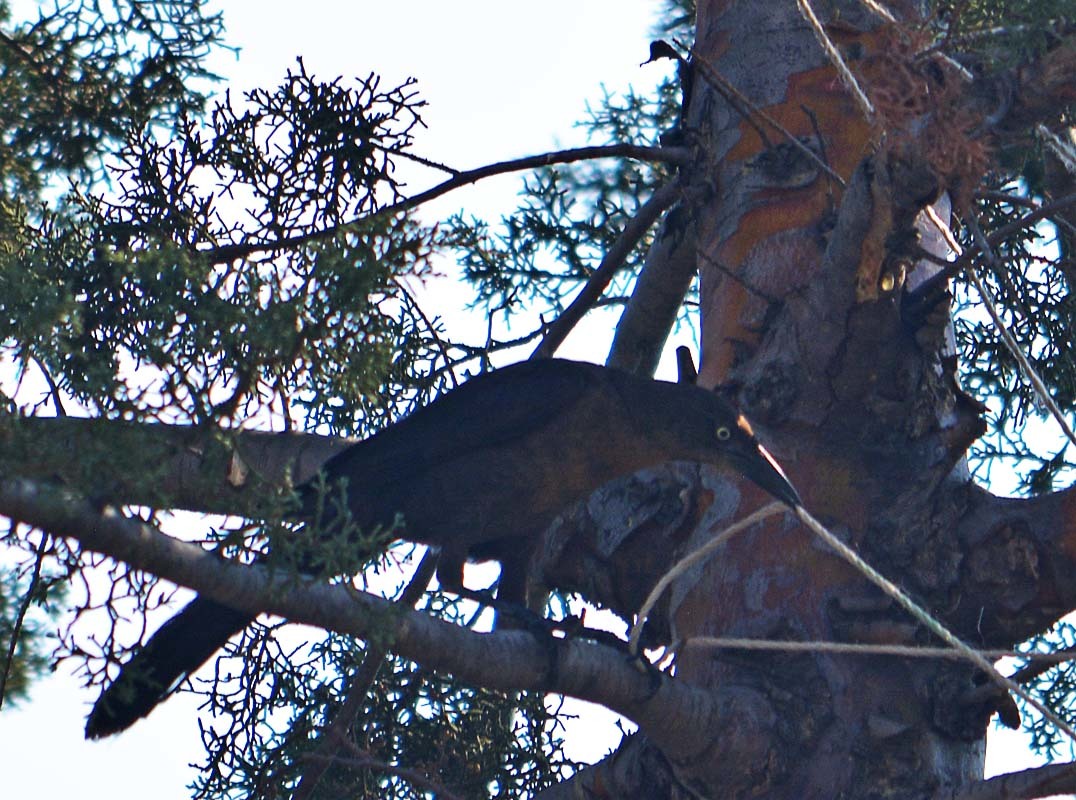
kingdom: Animalia
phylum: Chordata
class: Aves
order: Passeriformes
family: Icteridae
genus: Quiscalus
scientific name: Quiscalus mexicanus
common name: Great-tailed grackle
